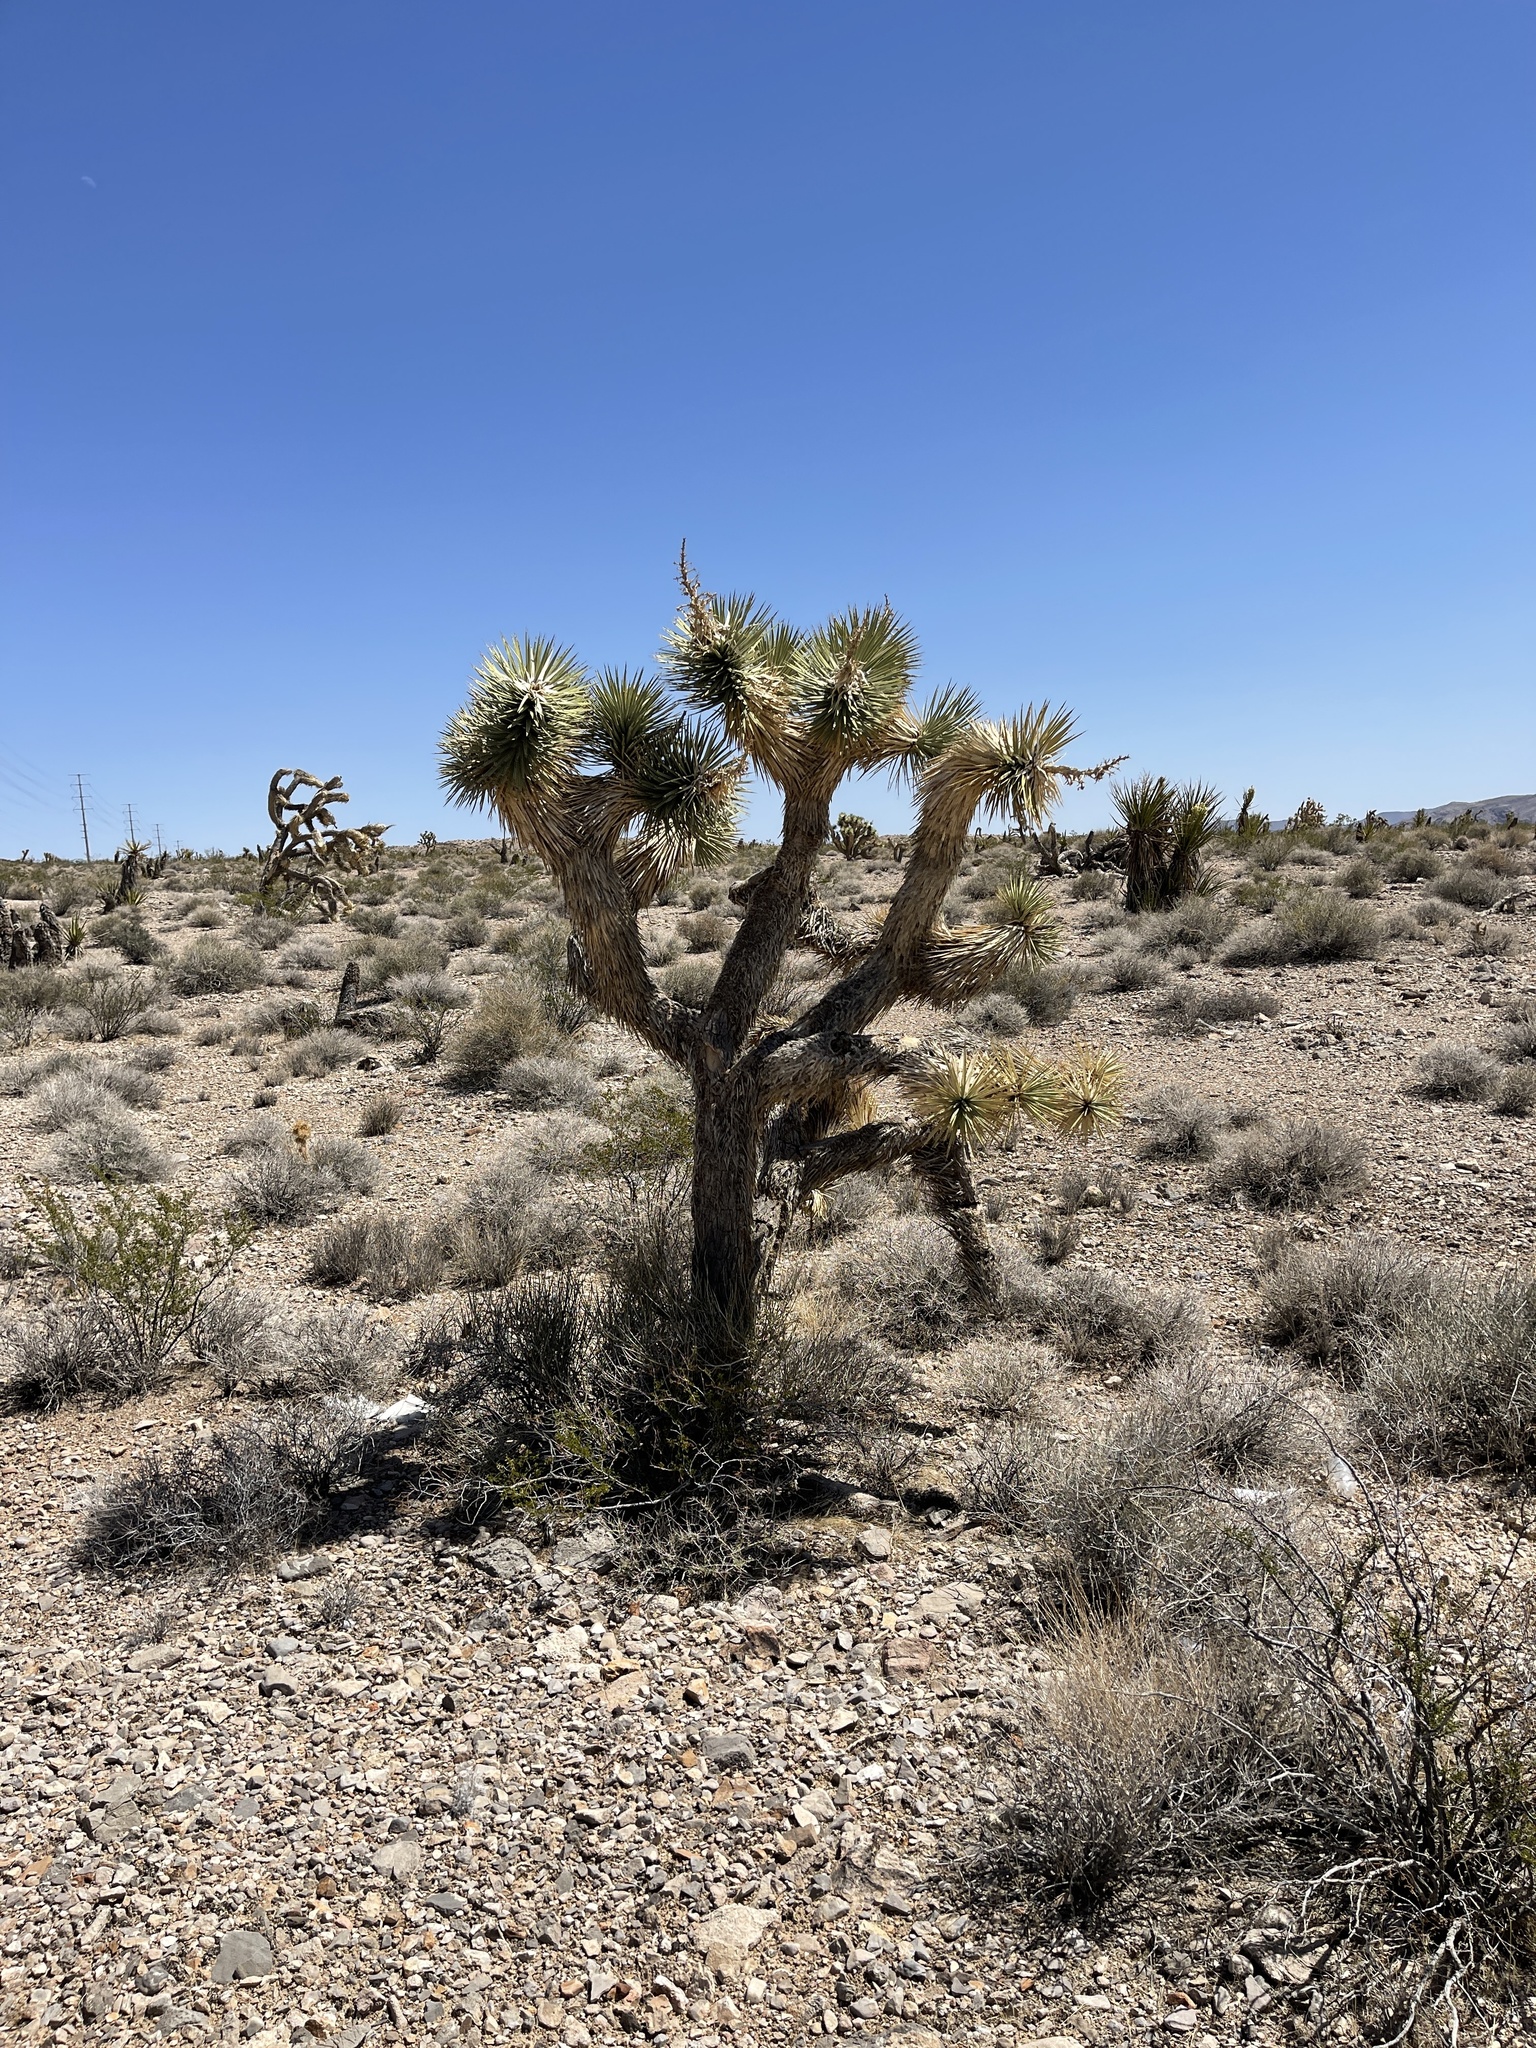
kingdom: Plantae
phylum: Tracheophyta
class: Liliopsida
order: Asparagales
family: Asparagaceae
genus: Yucca
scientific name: Yucca brevifolia
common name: Joshua tree
